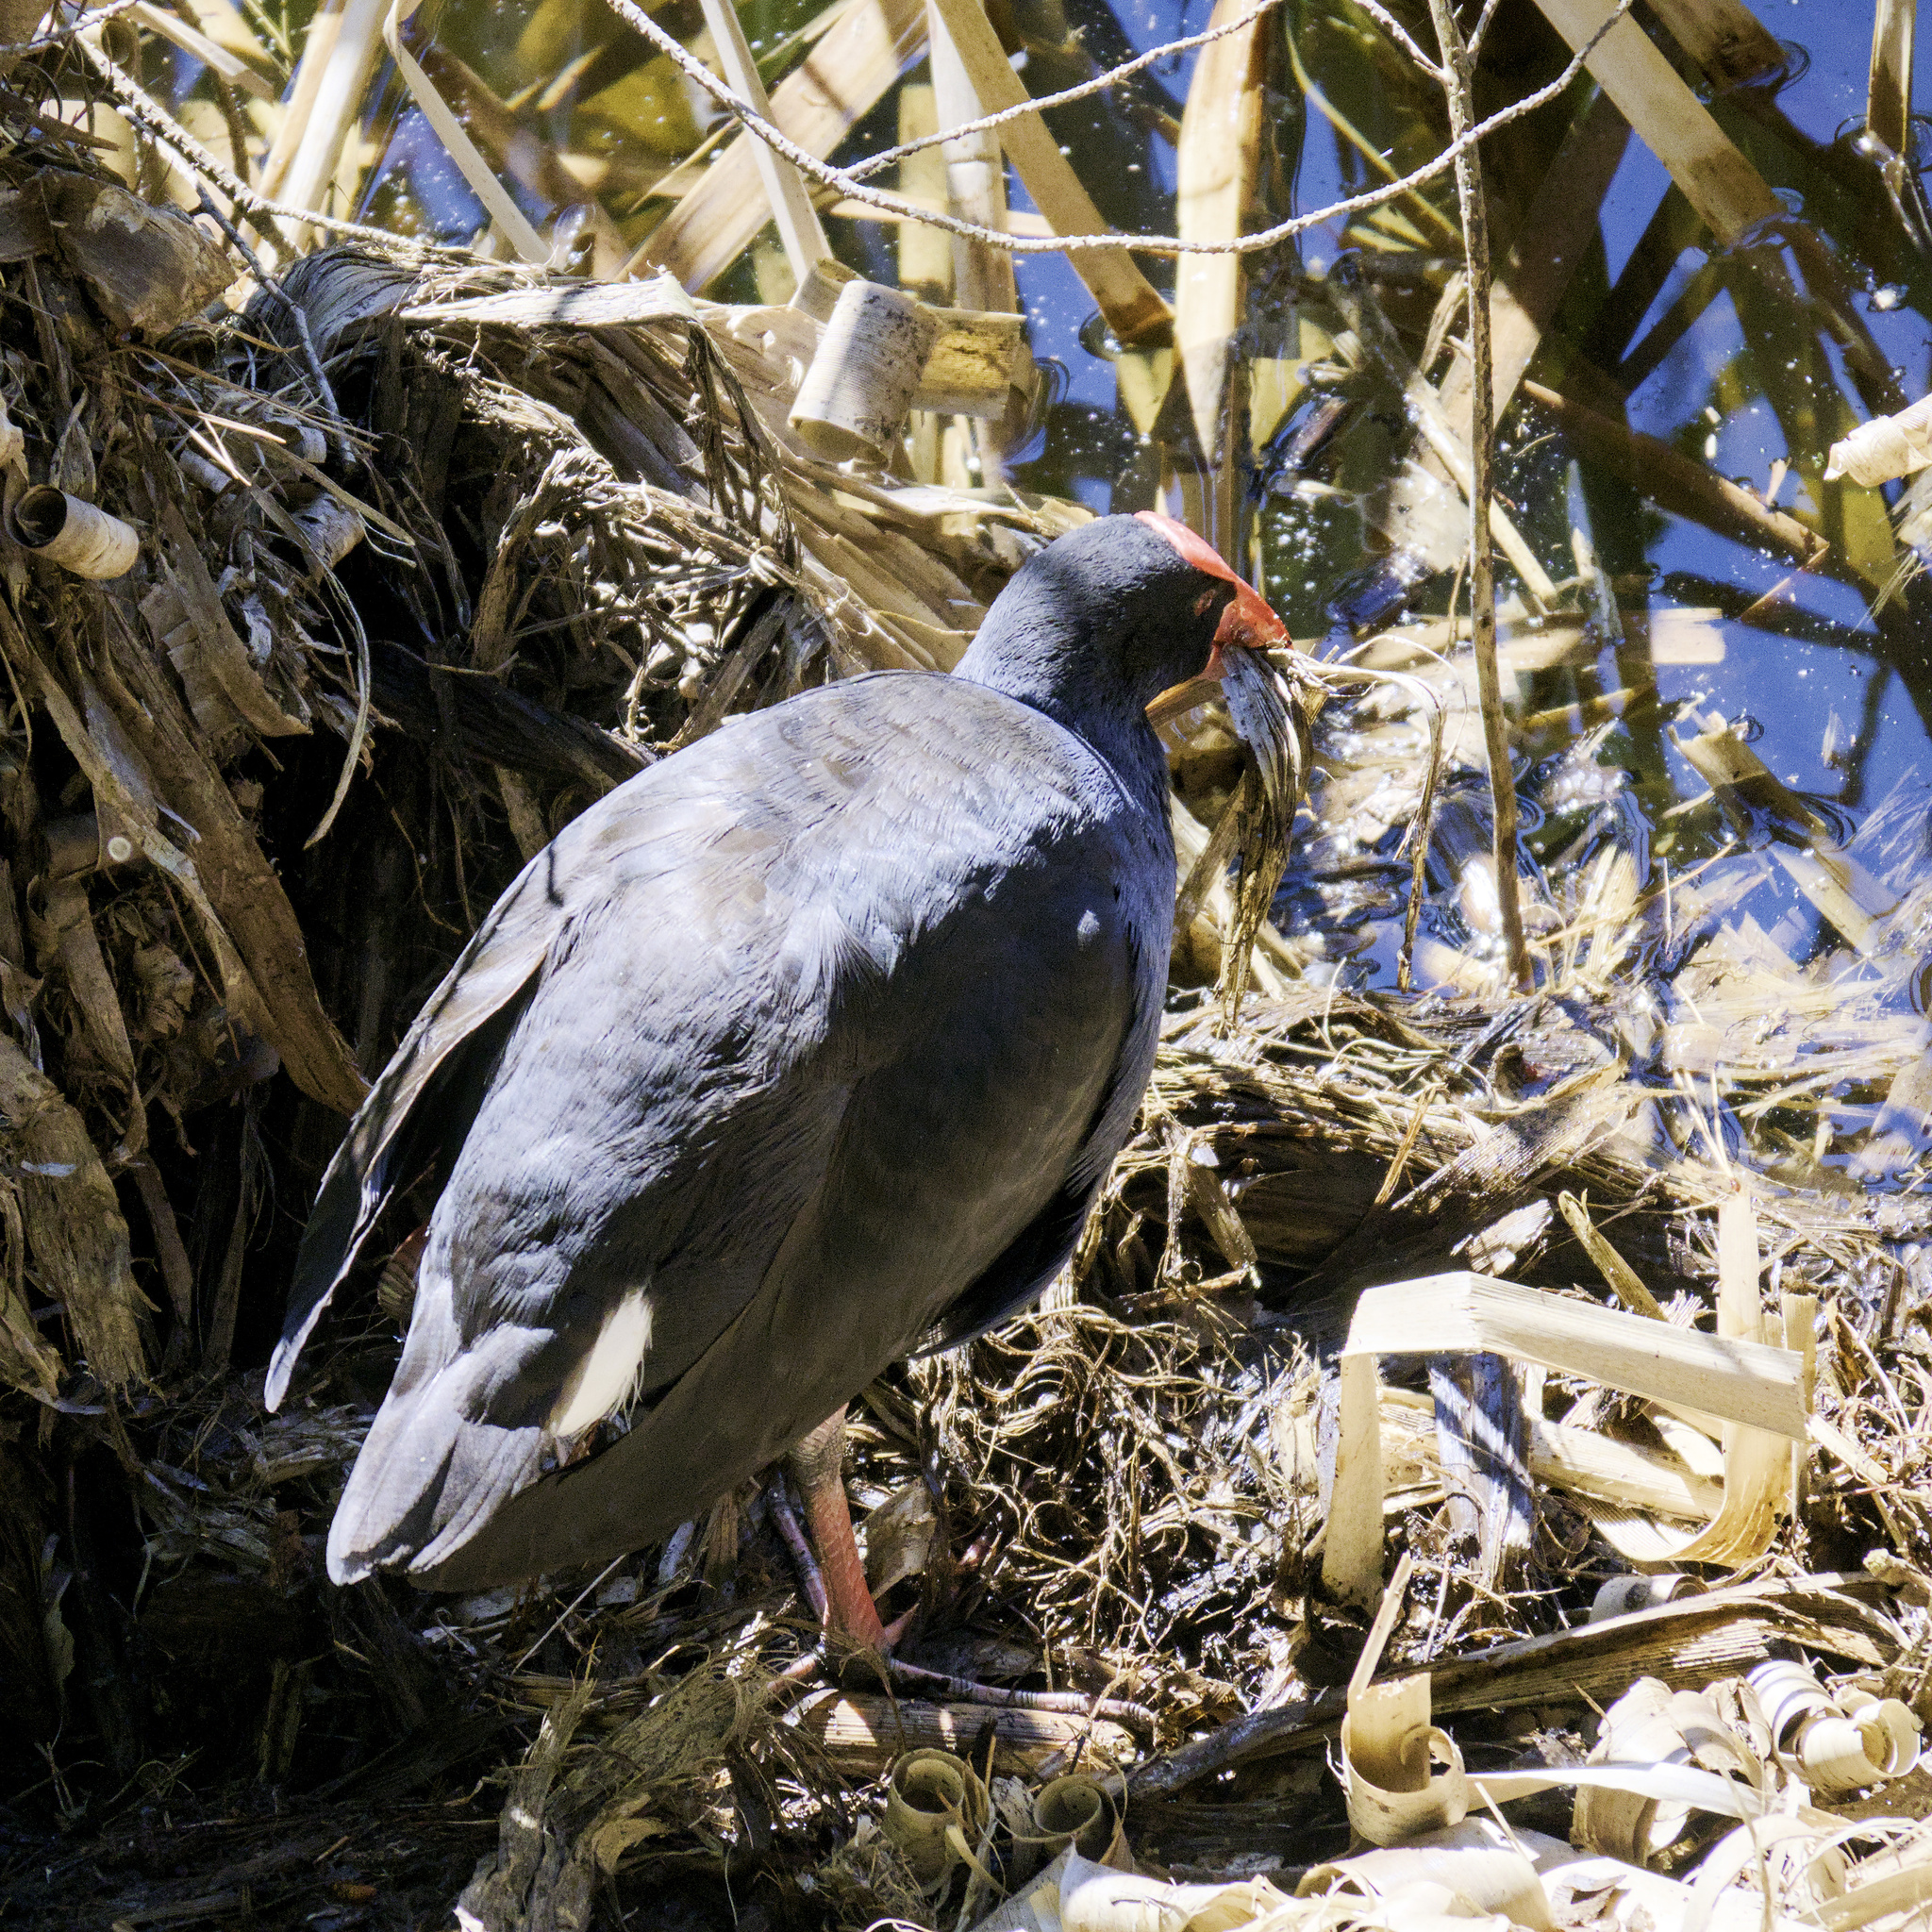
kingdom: Animalia
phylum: Chordata
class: Aves
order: Gruiformes
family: Rallidae
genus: Porphyrio
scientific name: Porphyrio melanotus
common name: Australasian swamphen
